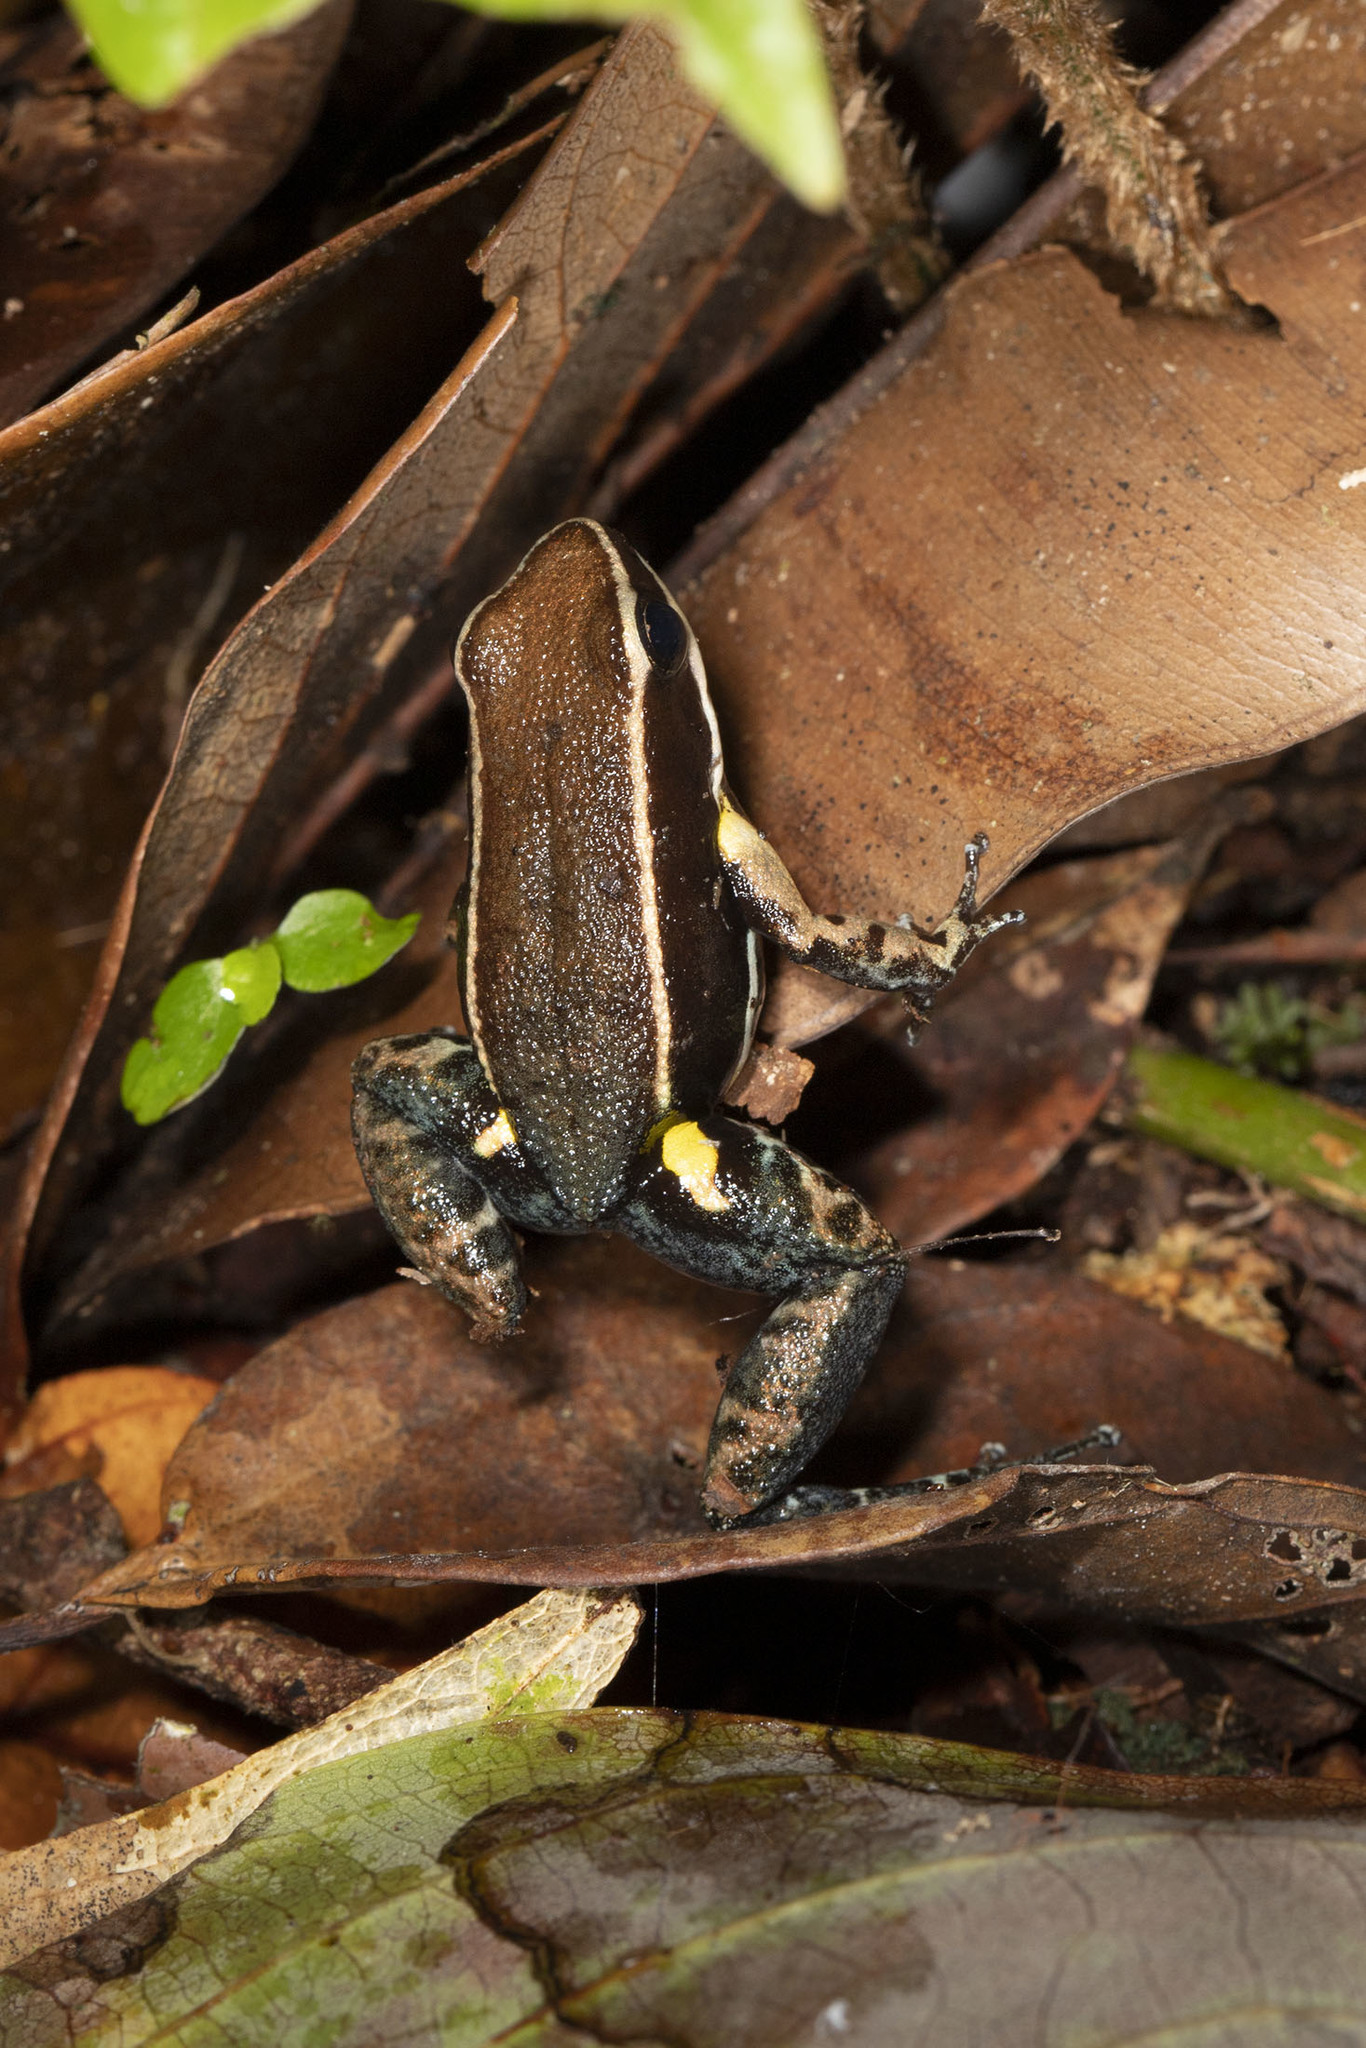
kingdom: Animalia
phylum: Chordata
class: Amphibia
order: Anura
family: Dendrobatidae
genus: Ameerega
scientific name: Ameerega hahneli
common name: Yurimaguas pioson frog
